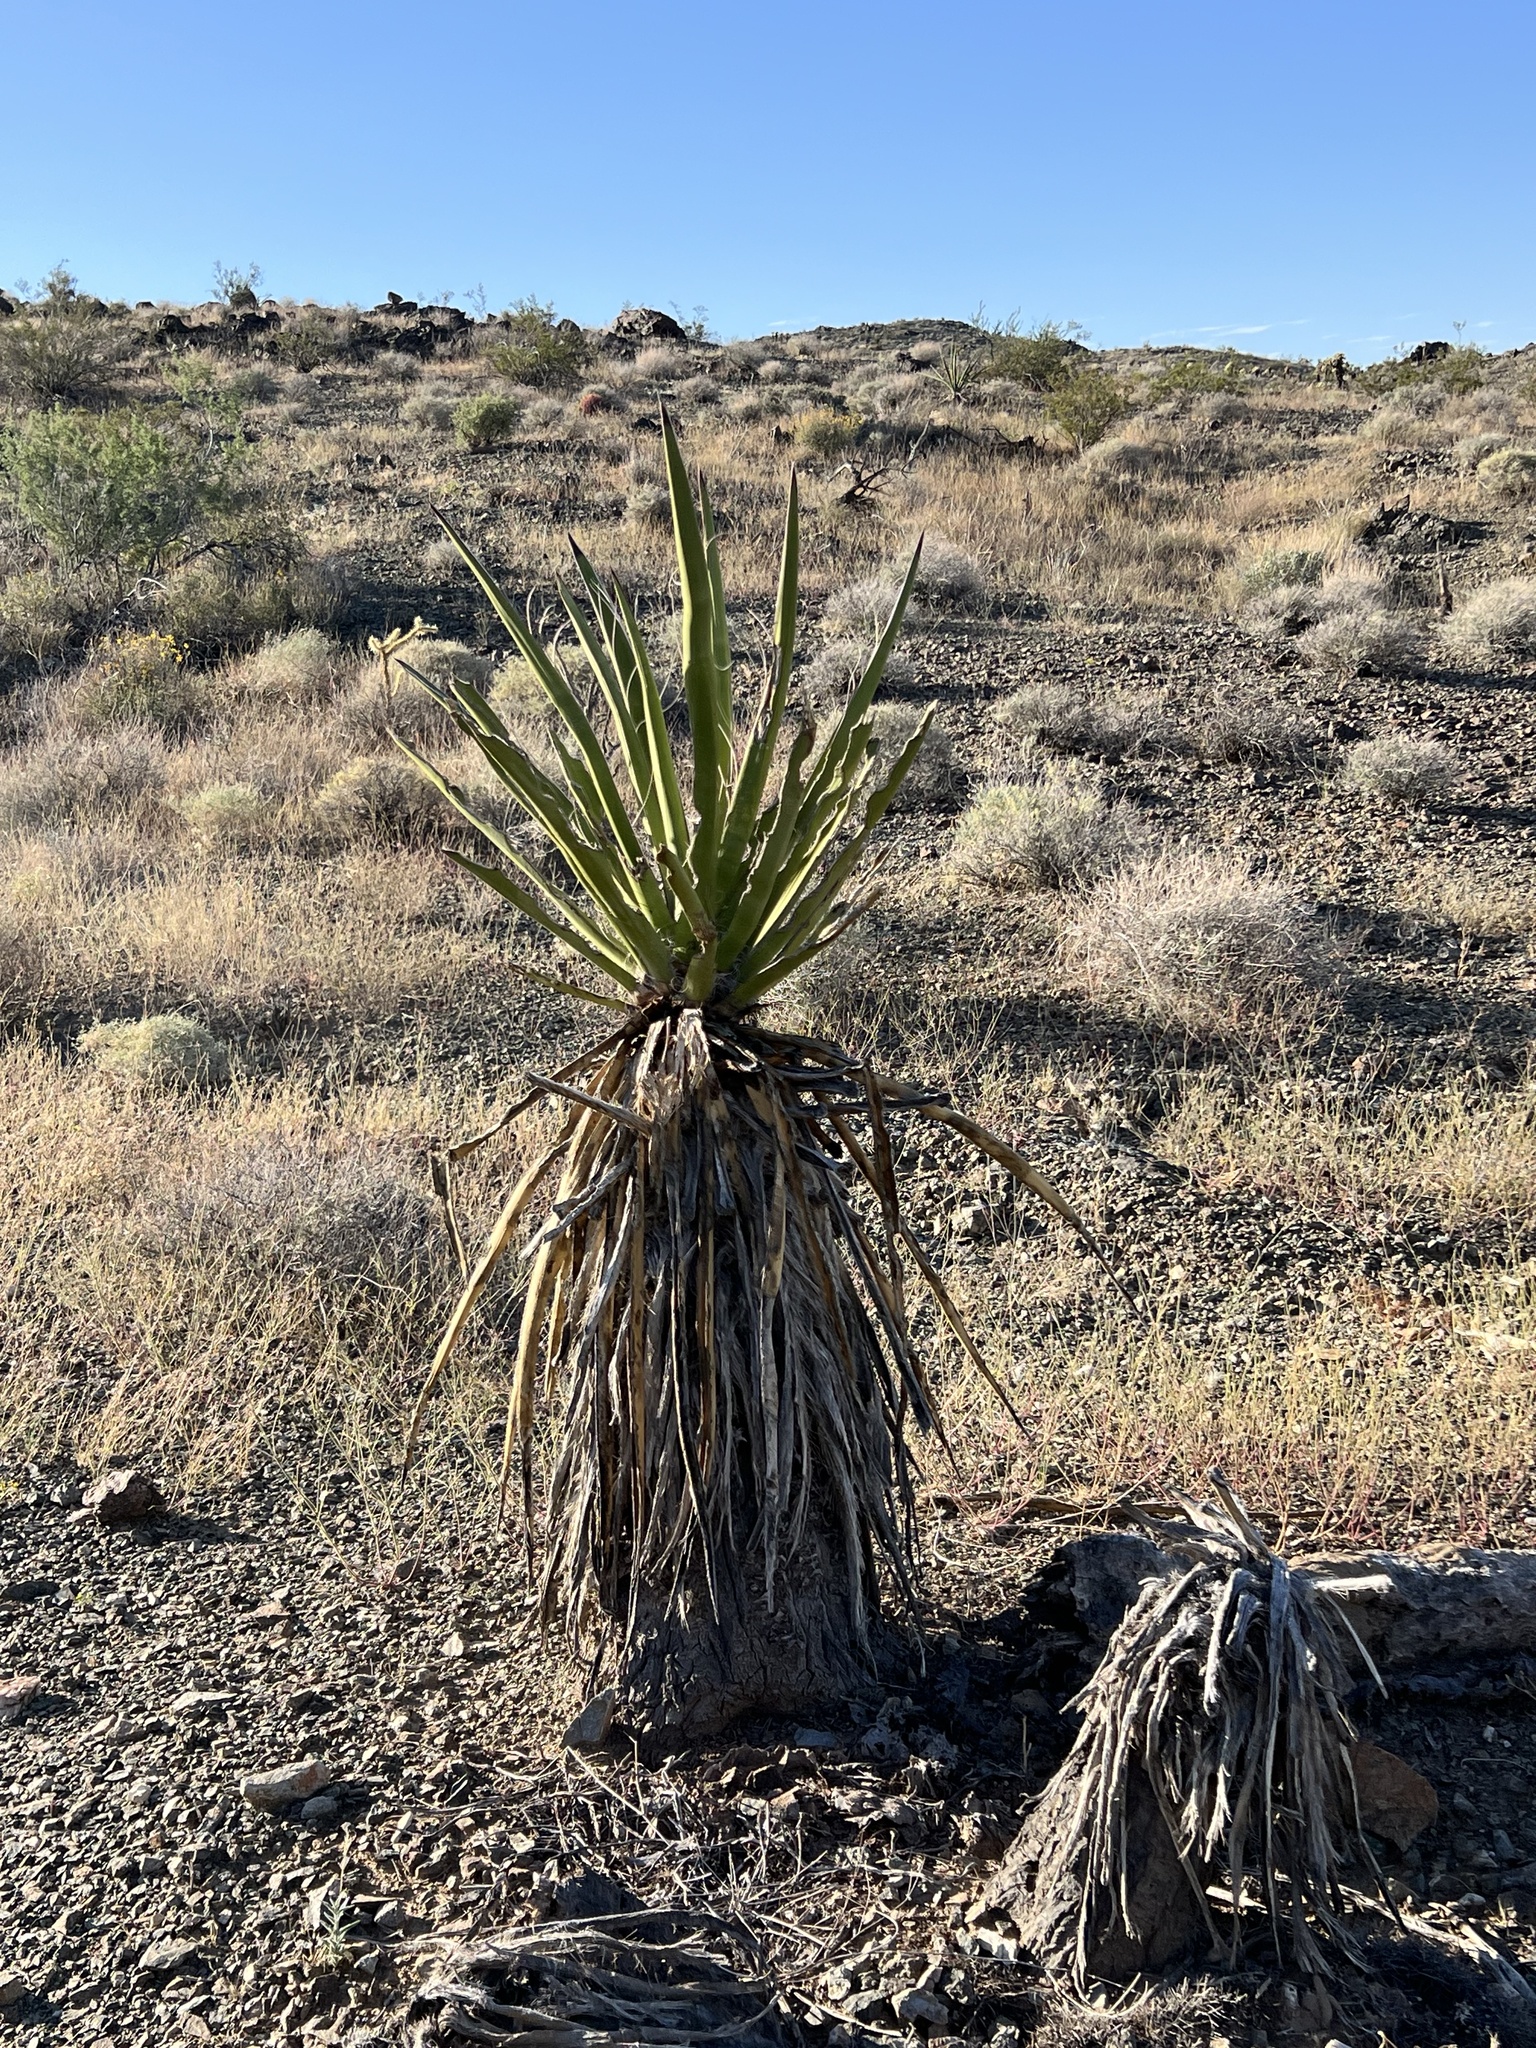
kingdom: Plantae
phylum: Tracheophyta
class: Liliopsida
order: Asparagales
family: Asparagaceae
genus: Yucca
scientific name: Yucca schidigera
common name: Mojave yucca
